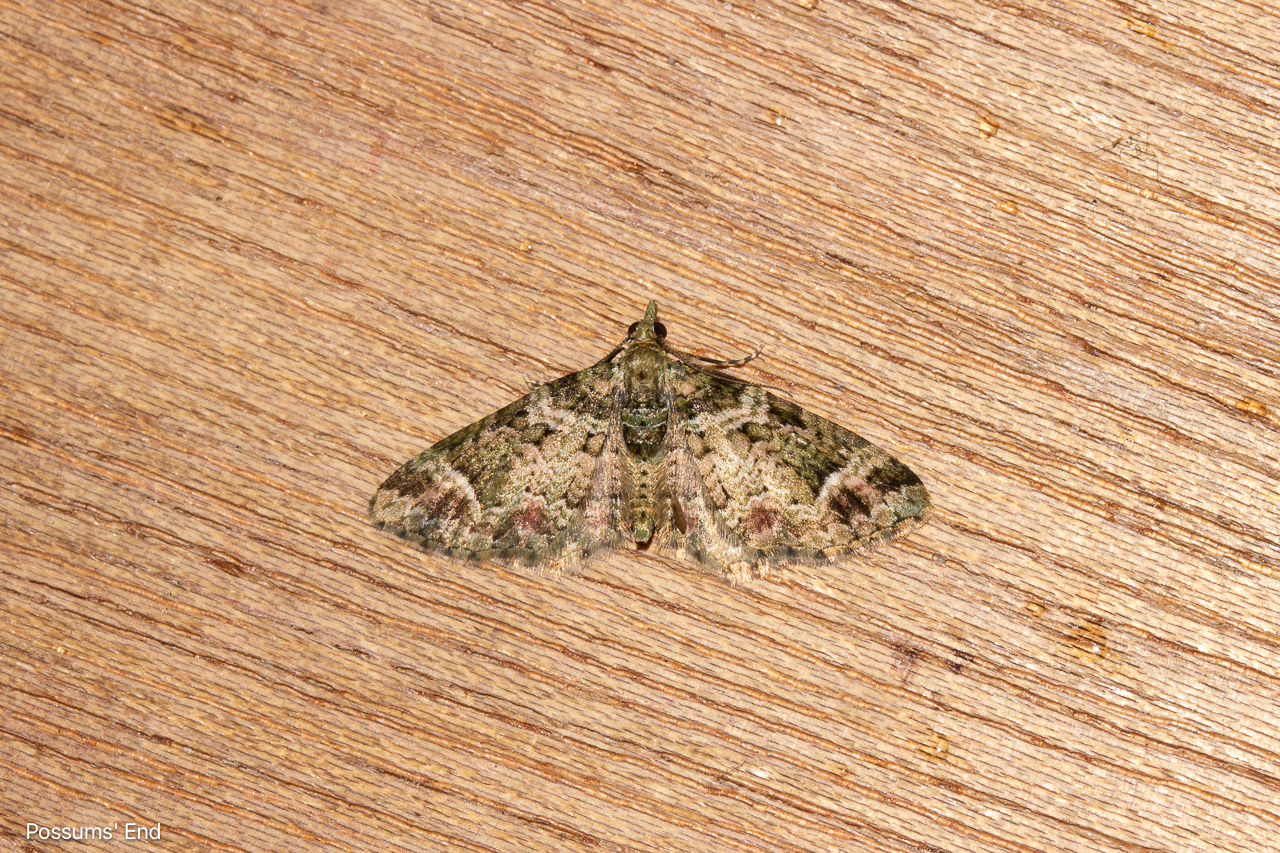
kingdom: Animalia
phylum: Arthropoda
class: Insecta
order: Lepidoptera
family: Geometridae
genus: Pasiphila
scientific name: Pasiphila urticae
